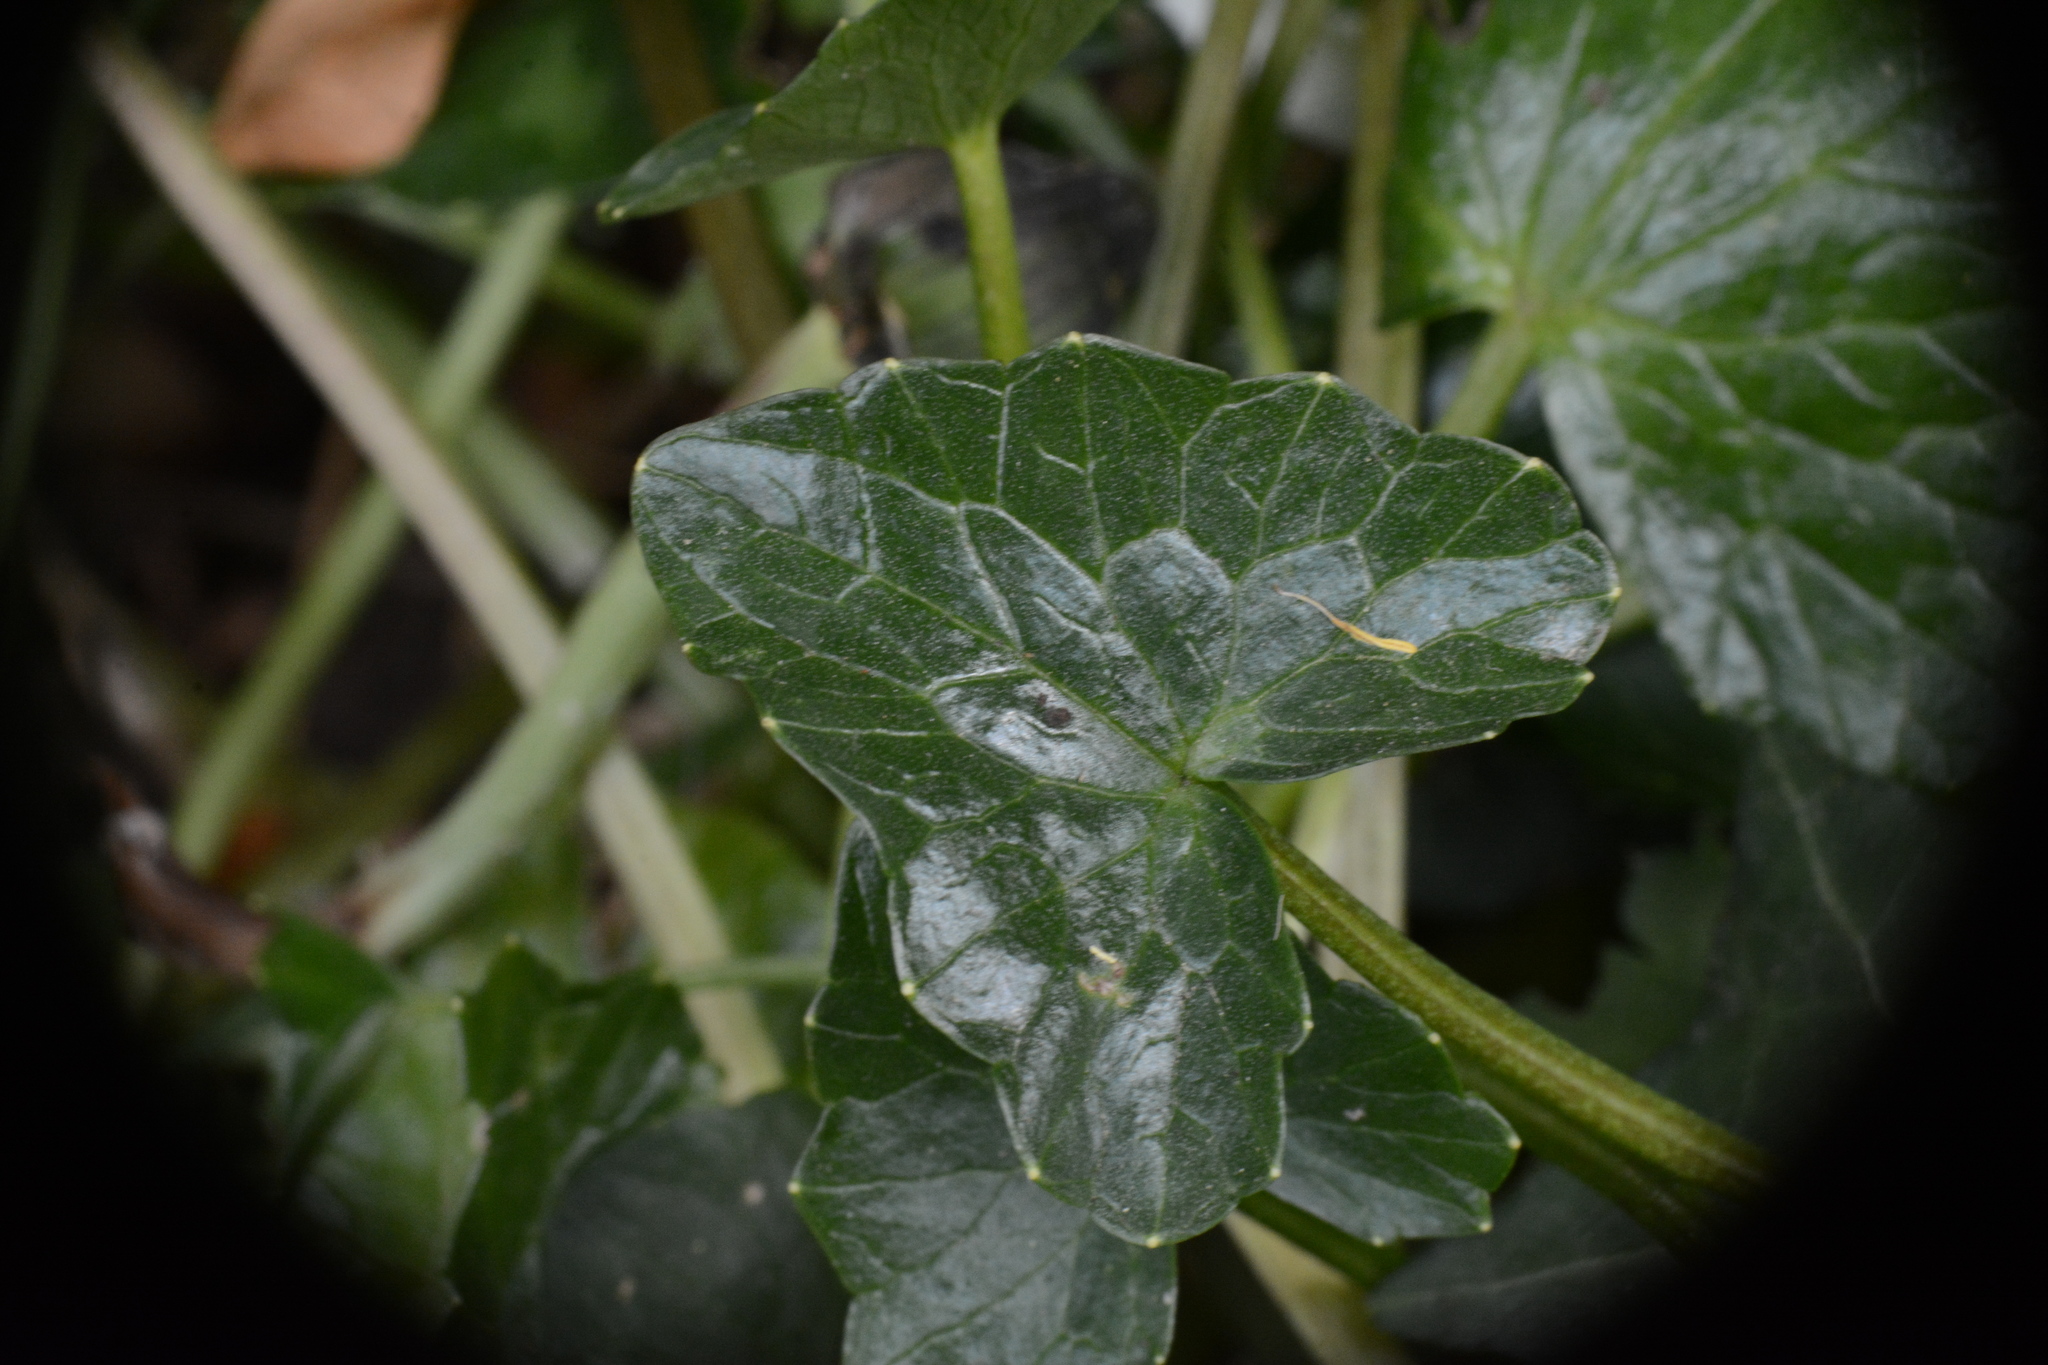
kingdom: Plantae
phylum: Tracheophyta
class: Magnoliopsida
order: Ranunculales
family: Ranunculaceae
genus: Ficaria
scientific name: Ficaria verna
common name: Lesser celandine
